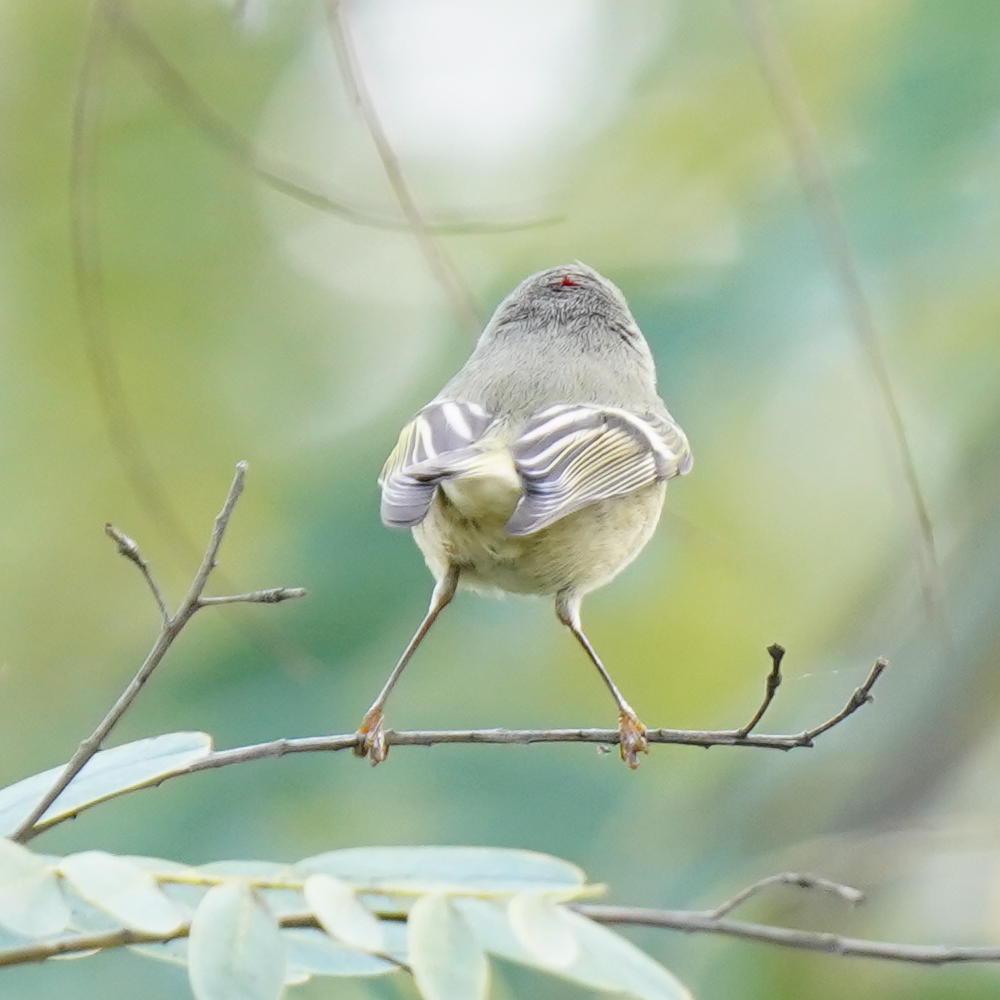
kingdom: Animalia
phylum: Chordata
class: Aves
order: Passeriformes
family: Regulidae
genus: Regulus
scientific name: Regulus calendula
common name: Ruby-crowned kinglet
